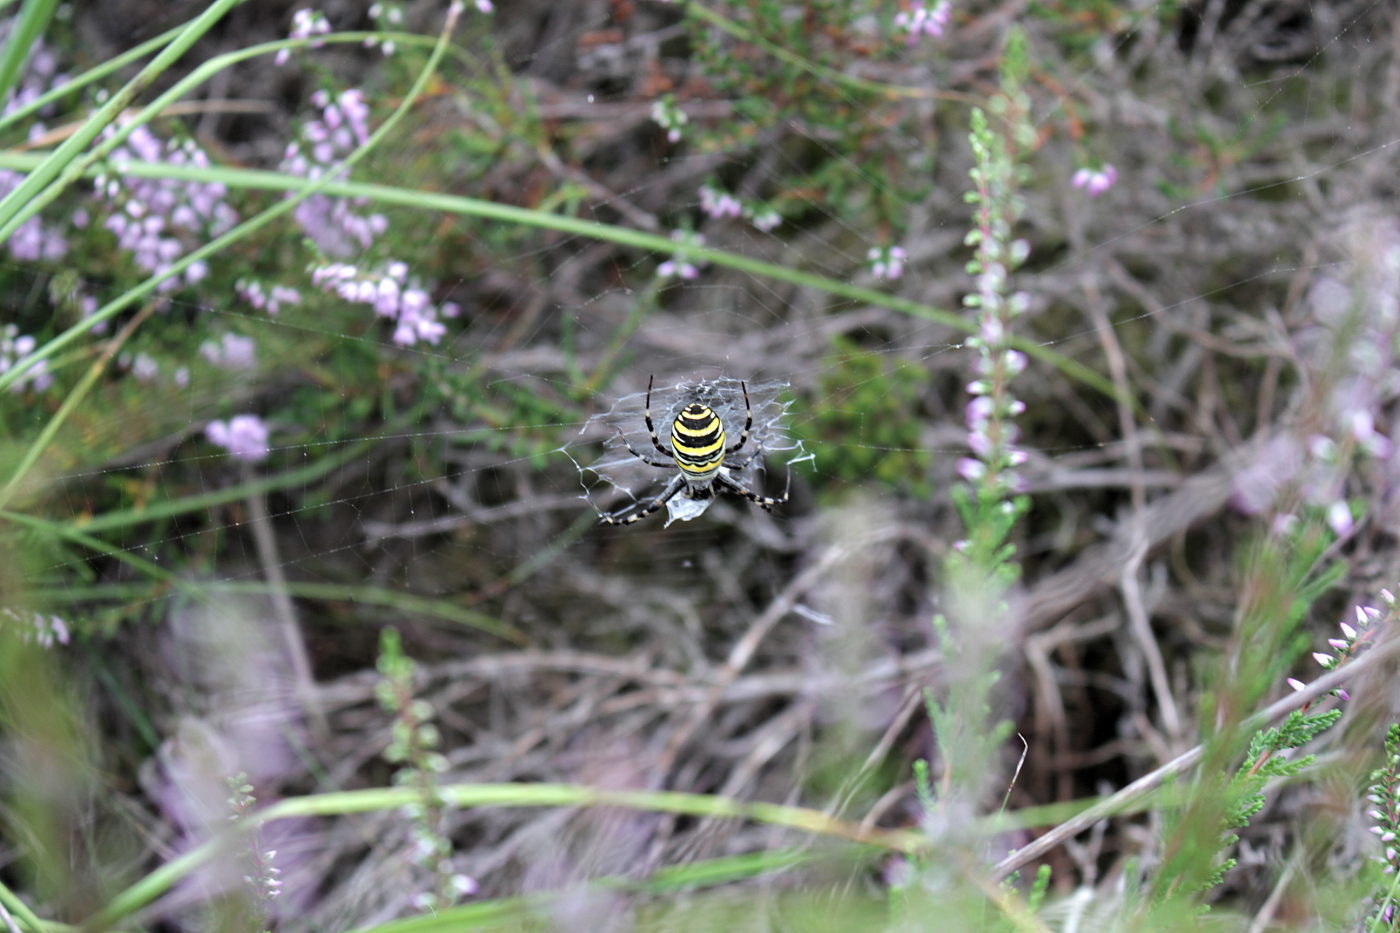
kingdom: Animalia
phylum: Arthropoda
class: Arachnida
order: Araneae
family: Araneidae
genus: Argiope
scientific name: Argiope bruennichi
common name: Wasp spider
